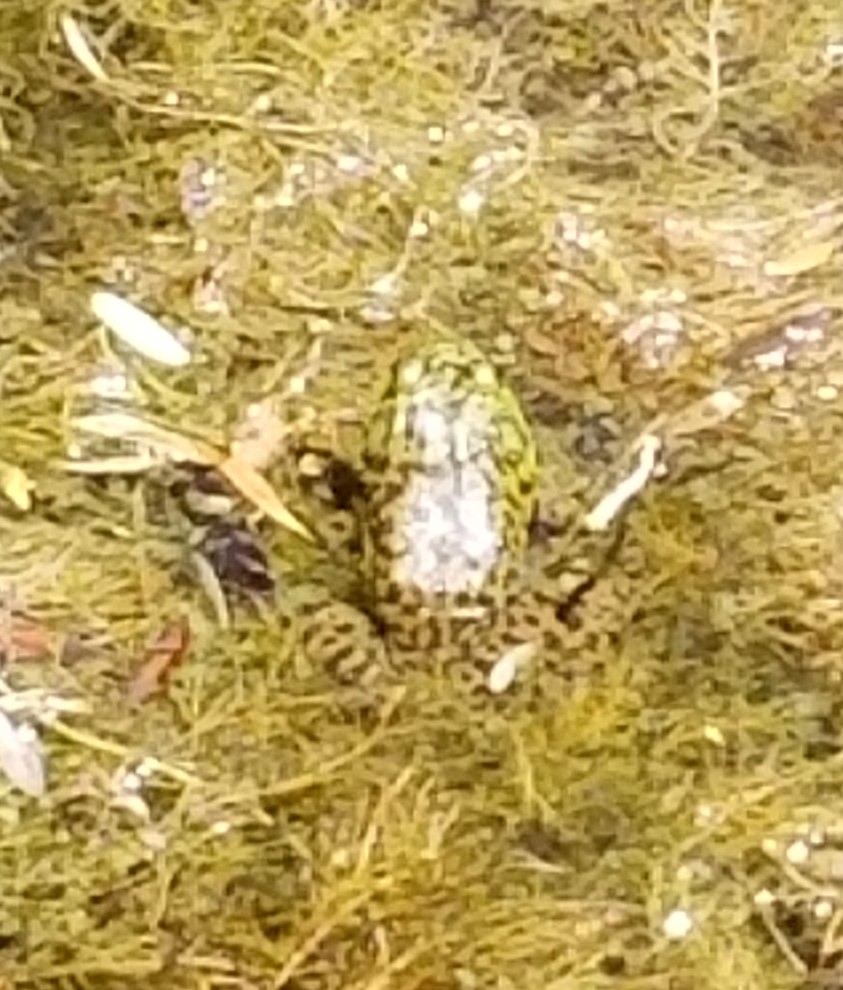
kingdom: Animalia
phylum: Chordata
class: Amphibia
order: Anura
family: Ranidae
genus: Lithobates
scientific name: Lithobates catesbeianus
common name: American bullfrog
